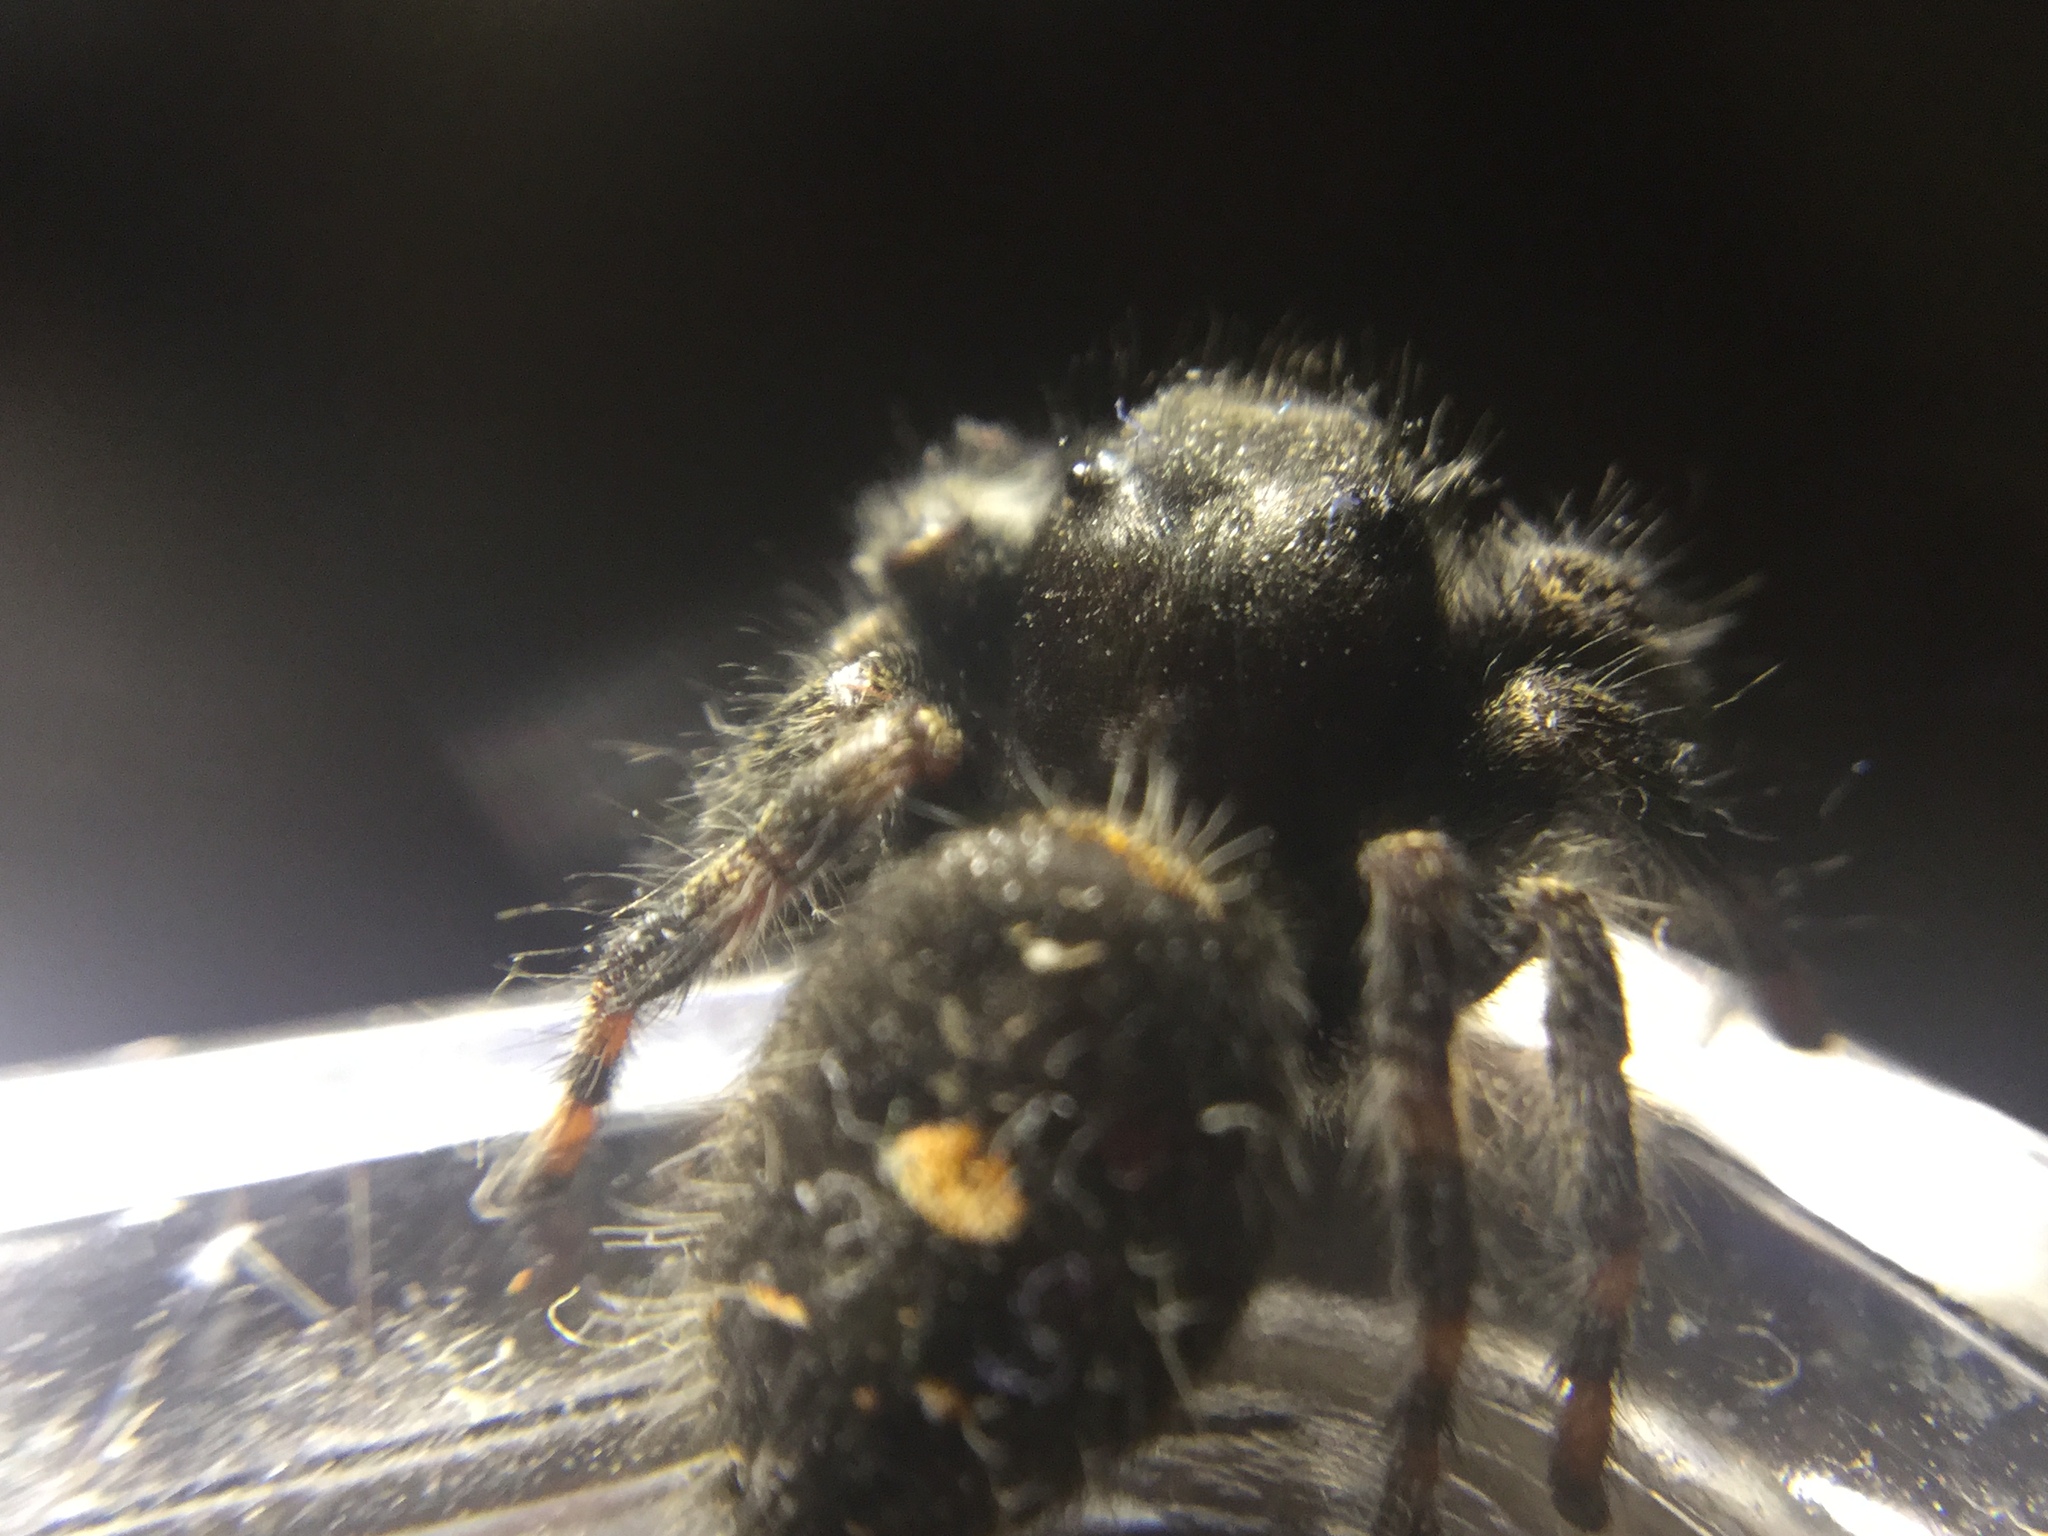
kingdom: Animalia
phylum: Arthropoda
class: Arachnida
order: Araneae
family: Salticidae
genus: Phidippus
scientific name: Phidippus audax
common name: Bold jumper
